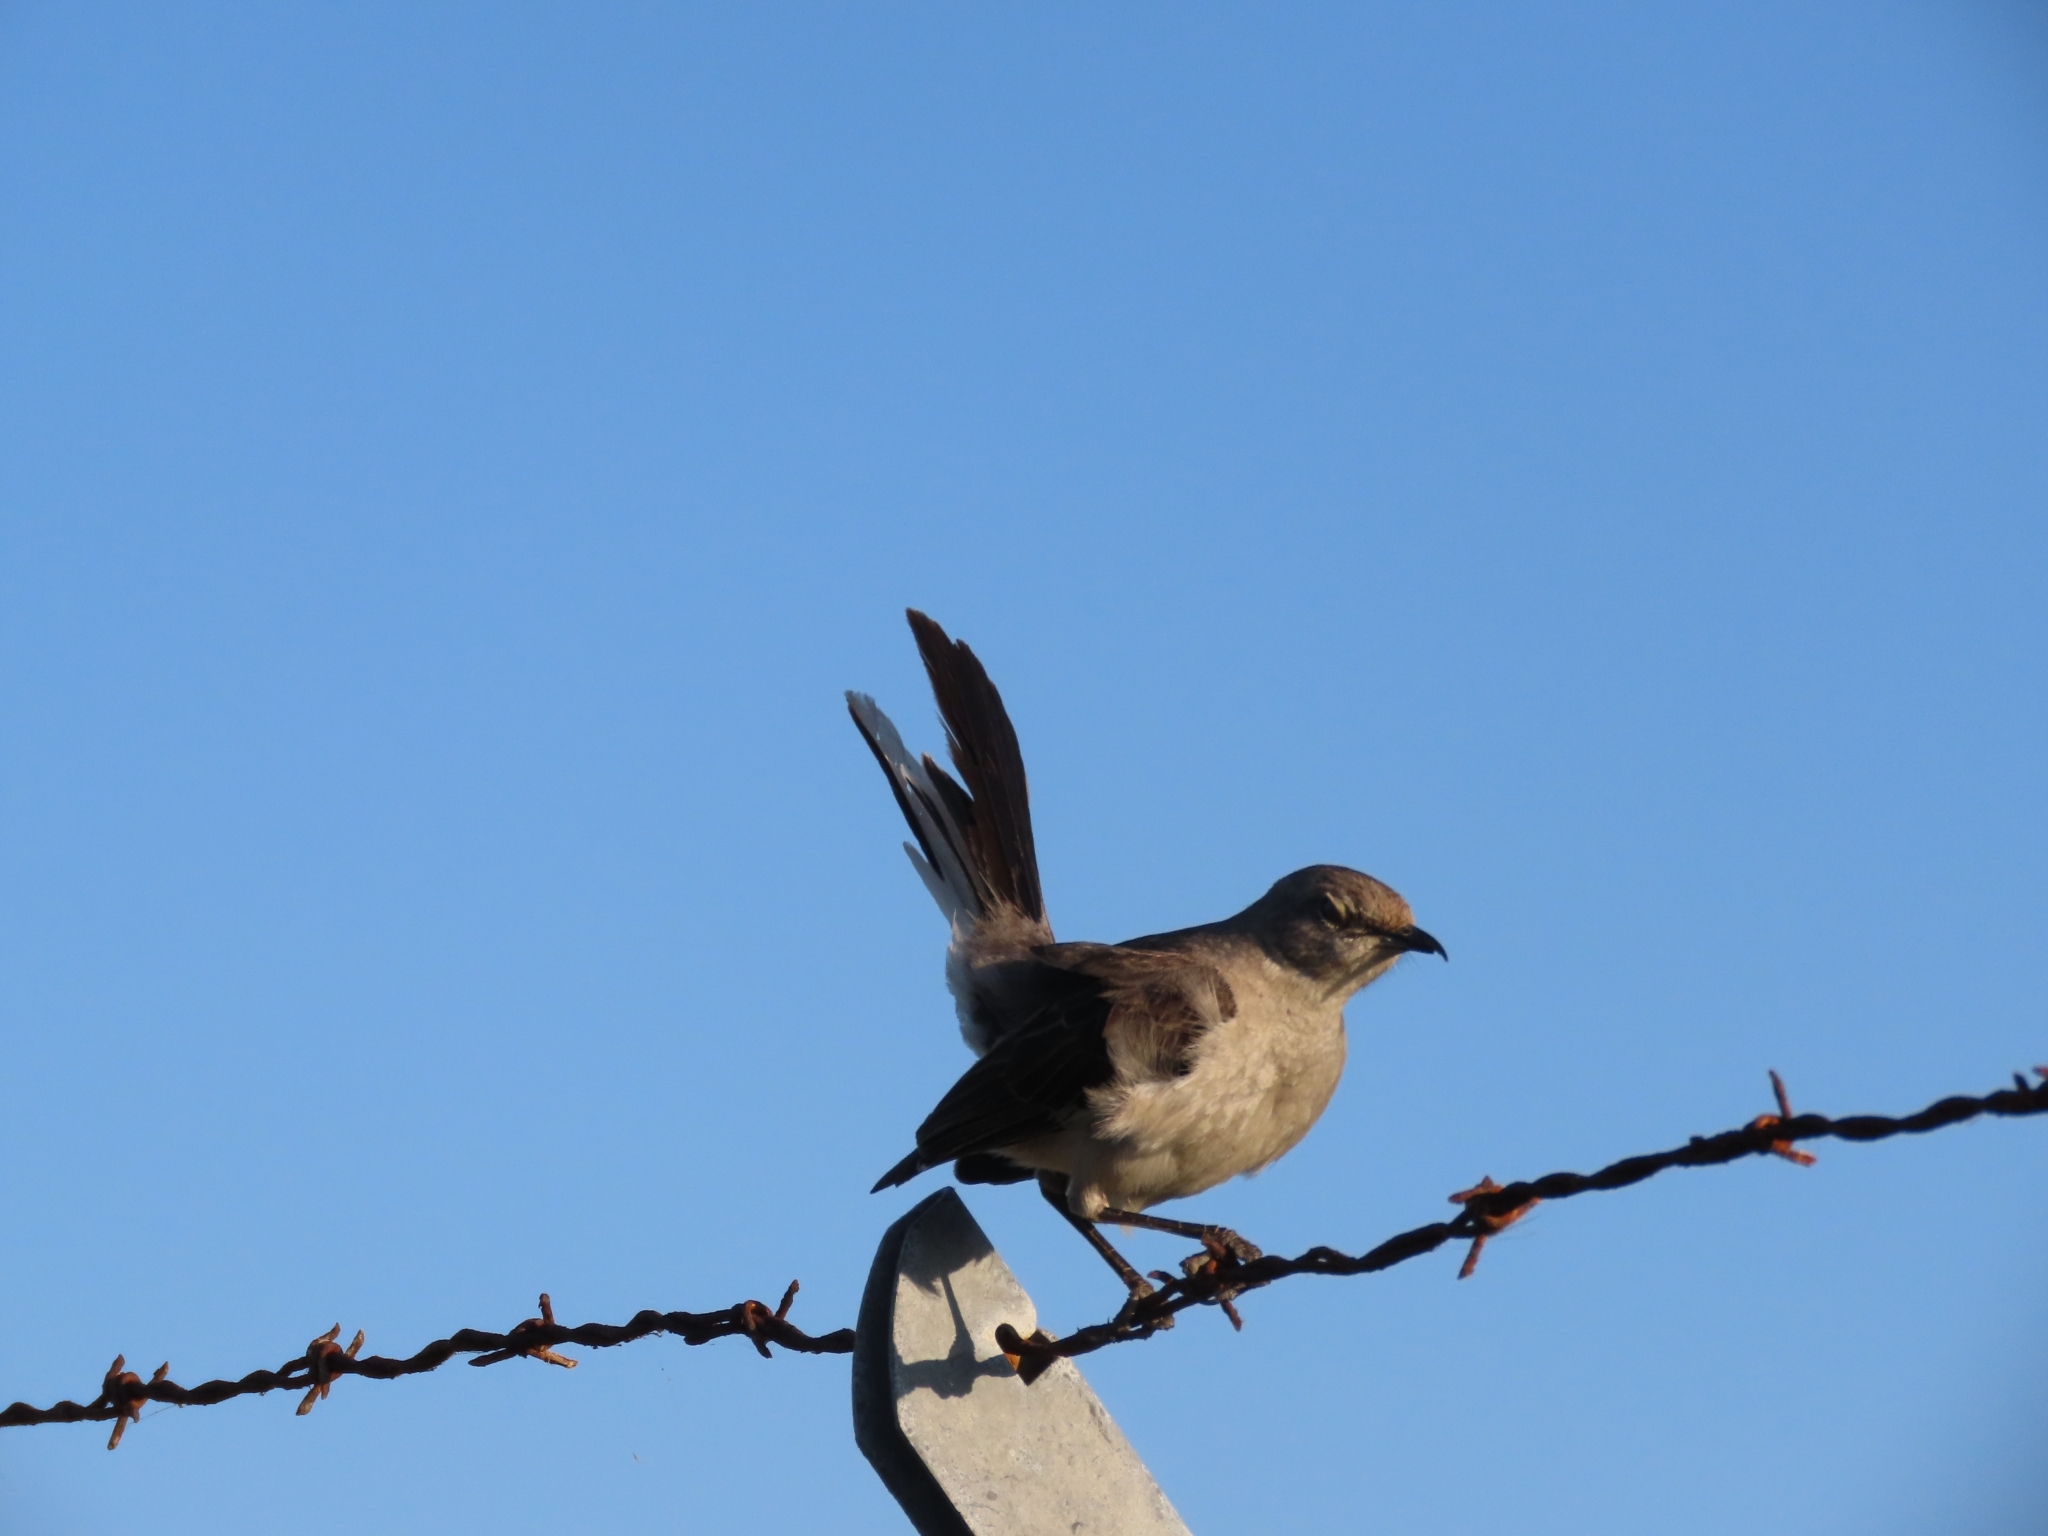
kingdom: Animalia
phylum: Chordata
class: Aves
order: Passeriformes
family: Mimidae
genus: Mimus
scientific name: Mimus polyglottos
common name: Northern mockingbird
